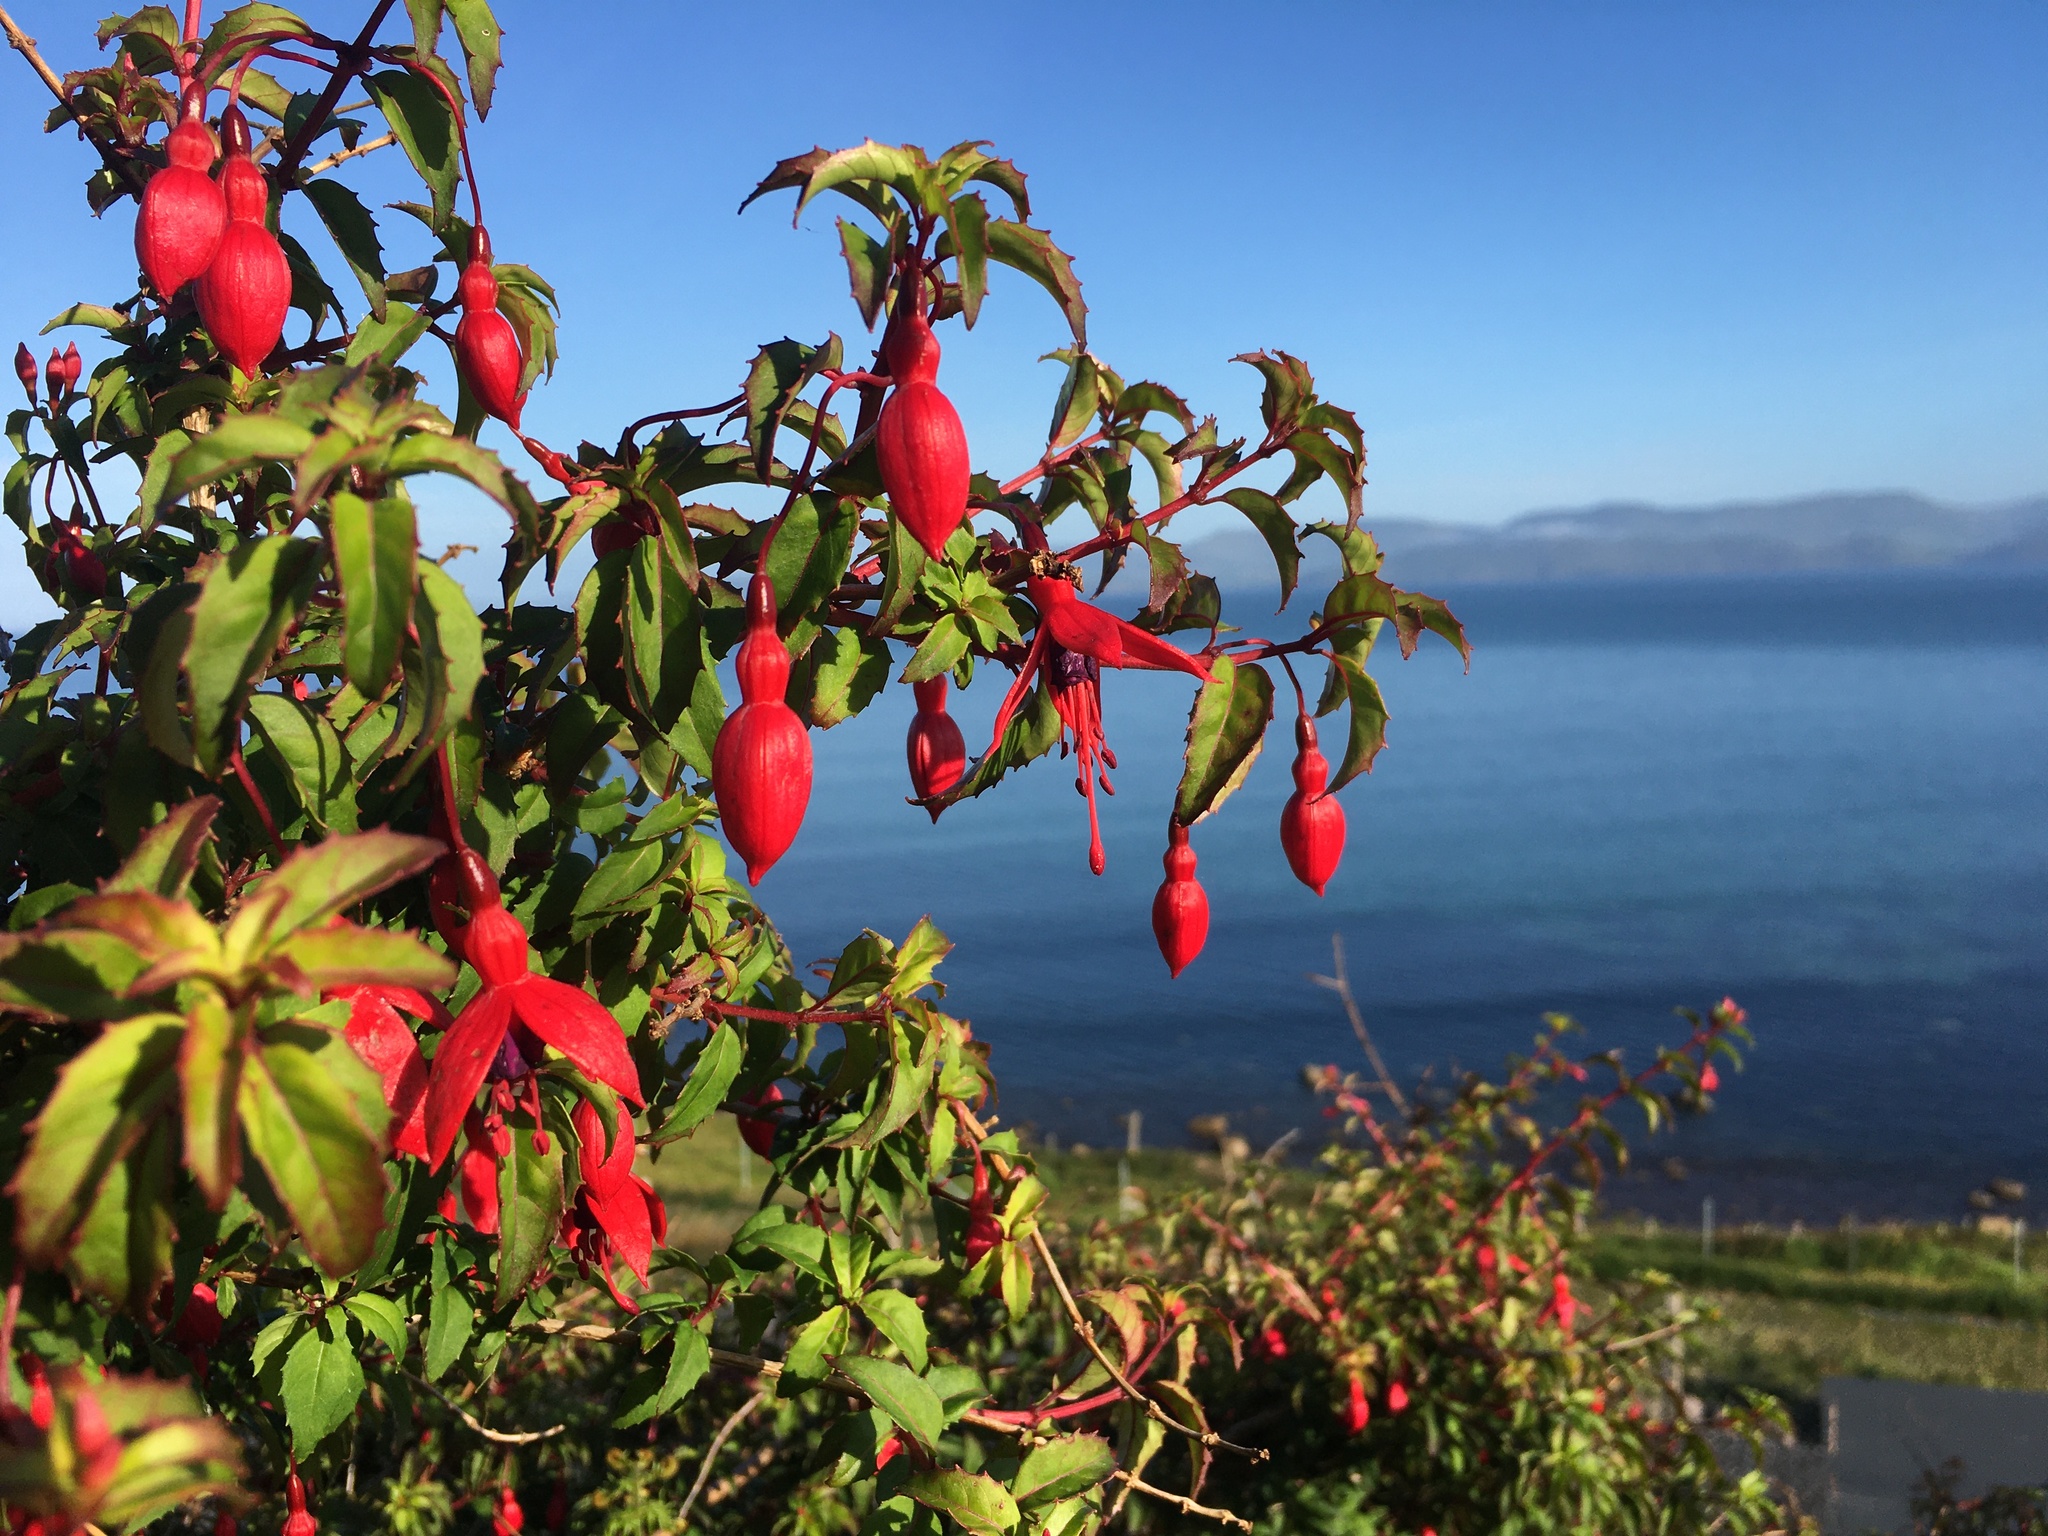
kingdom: Plantae
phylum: Tracheophyta
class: Magnoliopsida
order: Myrtales
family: Onagraceae
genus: Fuchsia
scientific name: Fuchsia magellanica
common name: Hardy fuchsia
